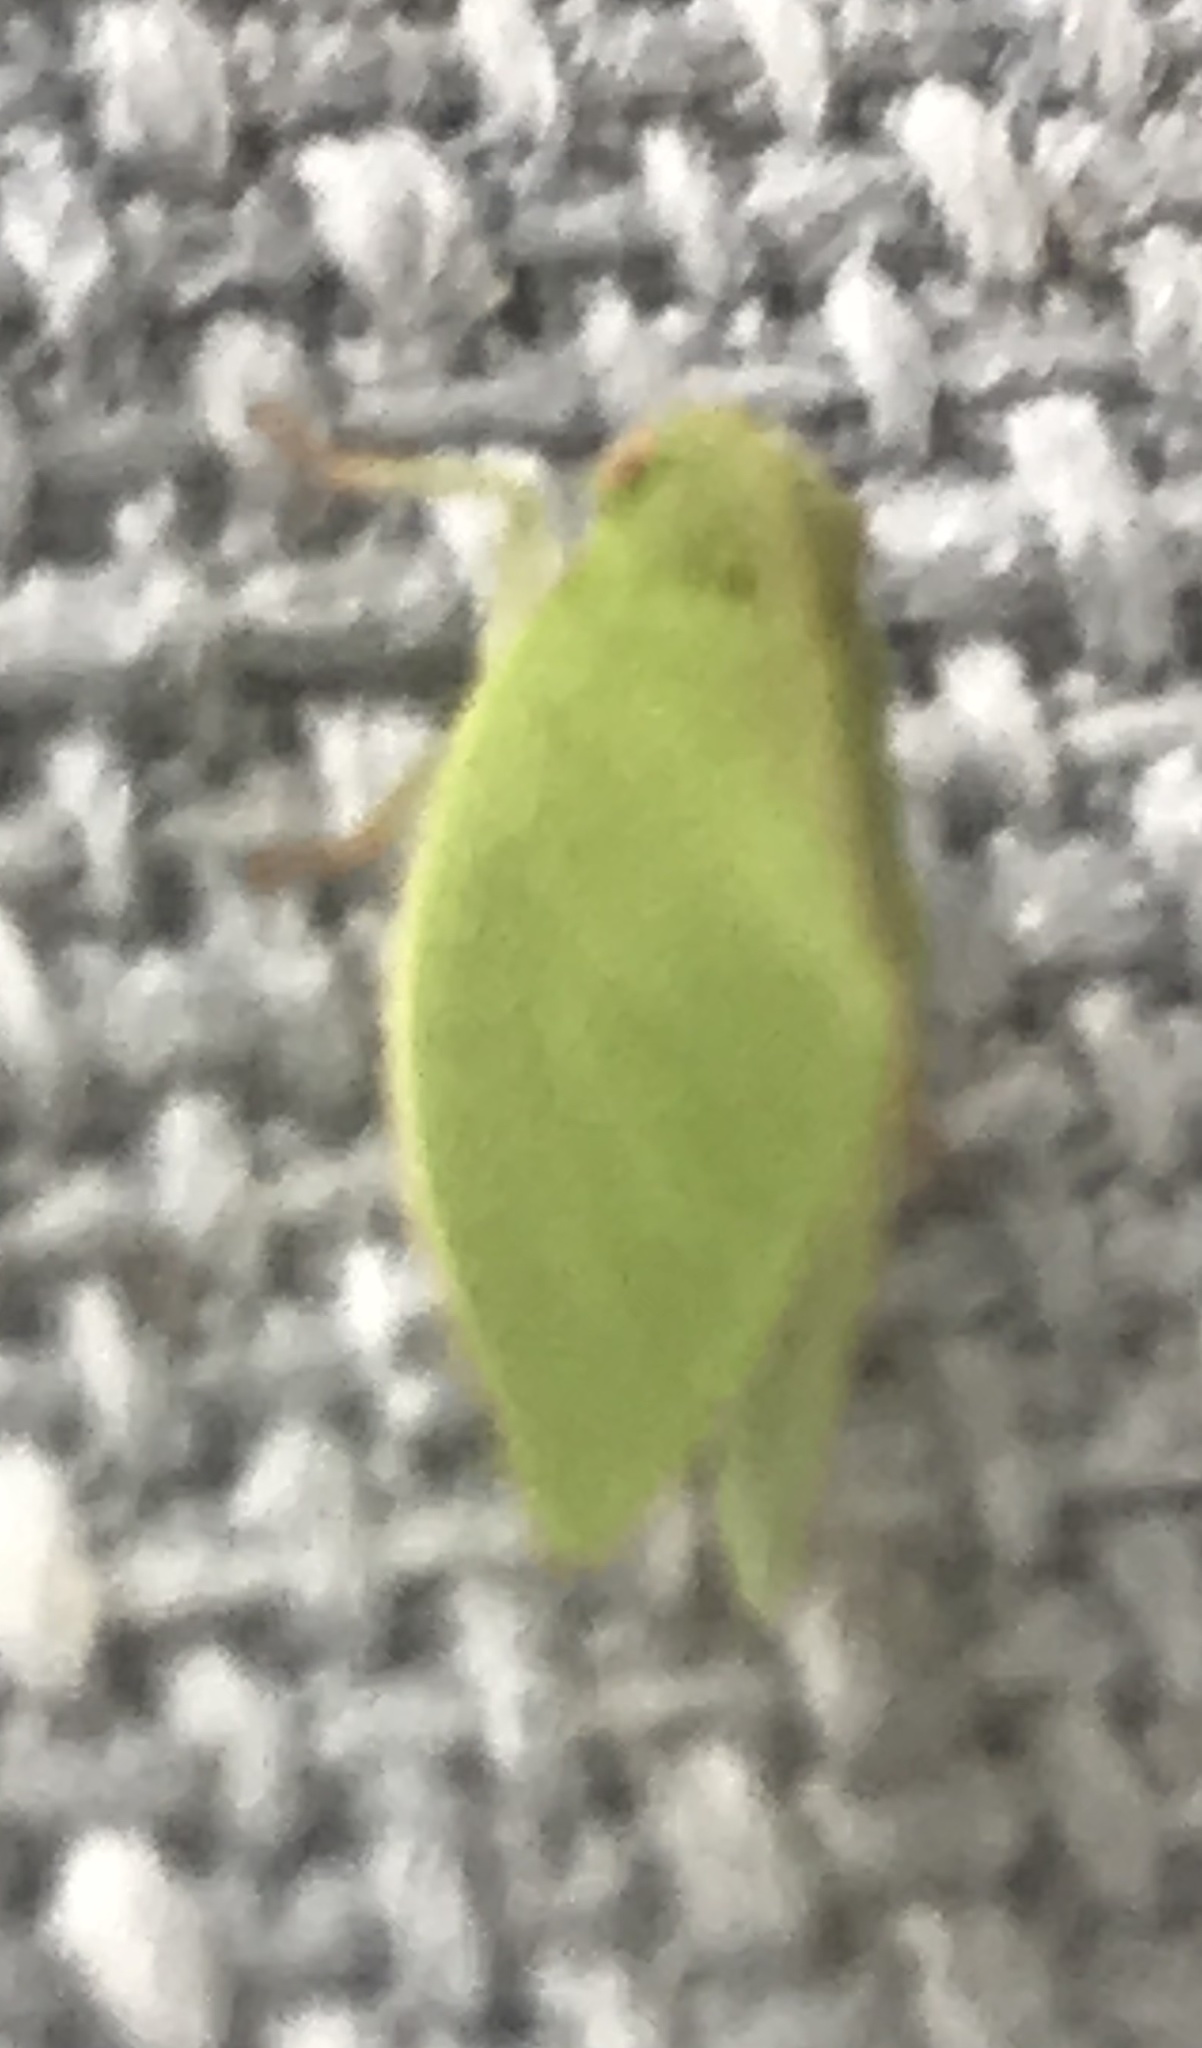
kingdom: Animalia
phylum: Arthropoda
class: Insecta
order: Hemiptera
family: Acanaloniidae
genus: Acanalonia
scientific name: Acanalonia conica
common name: Green cone-headed planthopper
